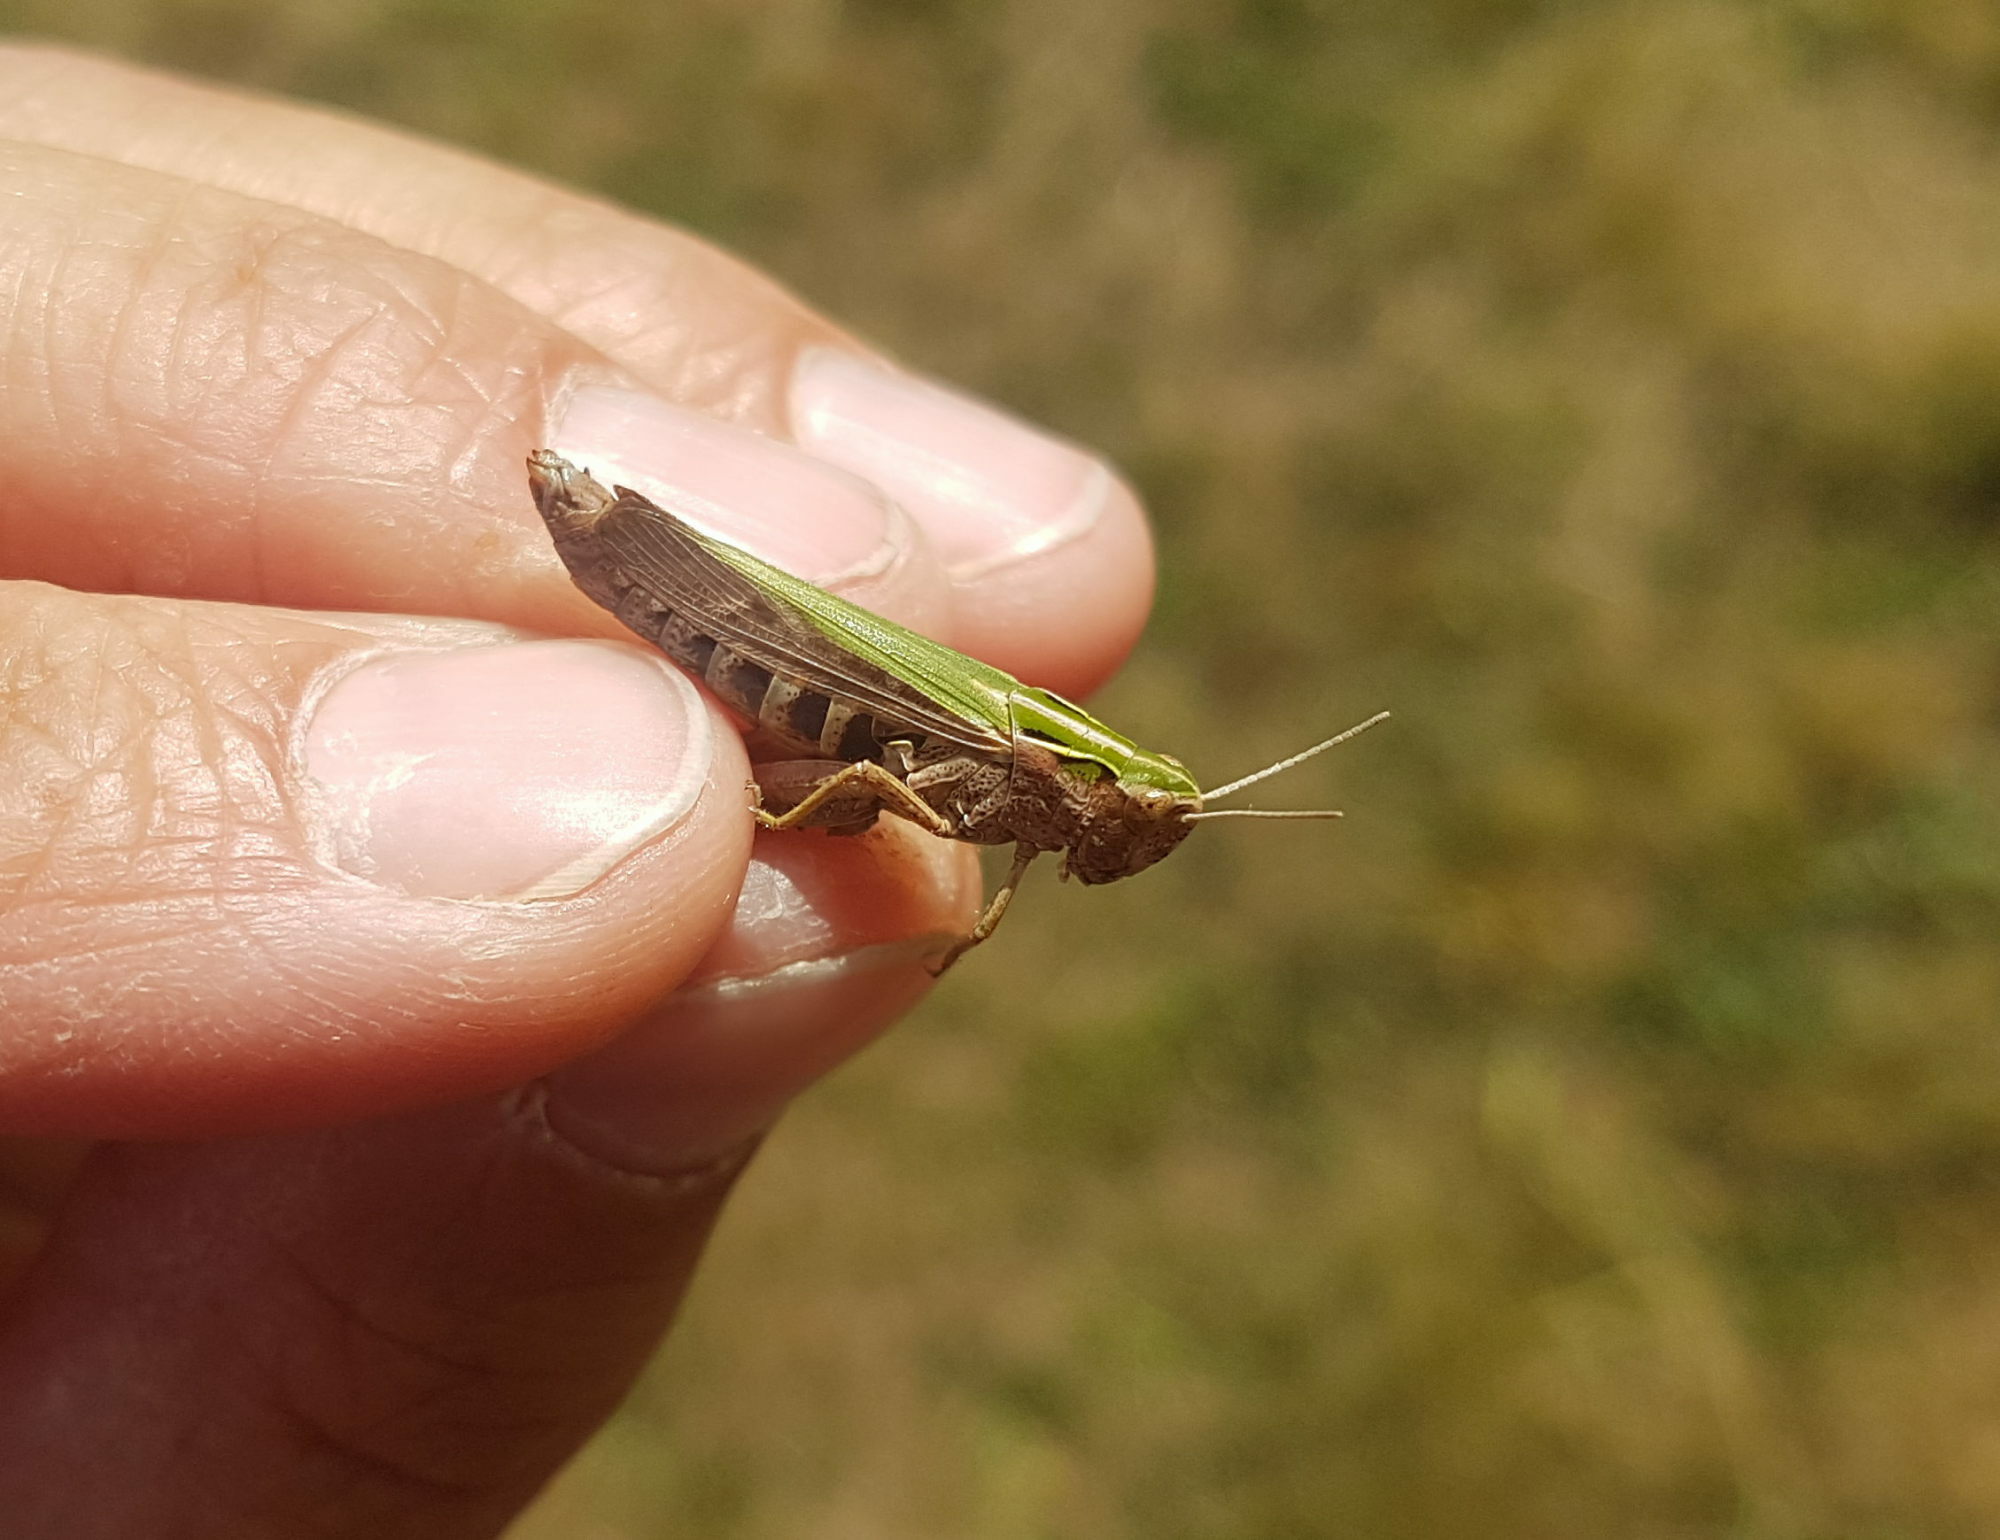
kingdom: Animalia
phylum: Arthropoda
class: Insecta
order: Orthoptera
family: Acrididae
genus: Omocestus
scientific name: Omocestus viridulus
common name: Common green grasshopper
